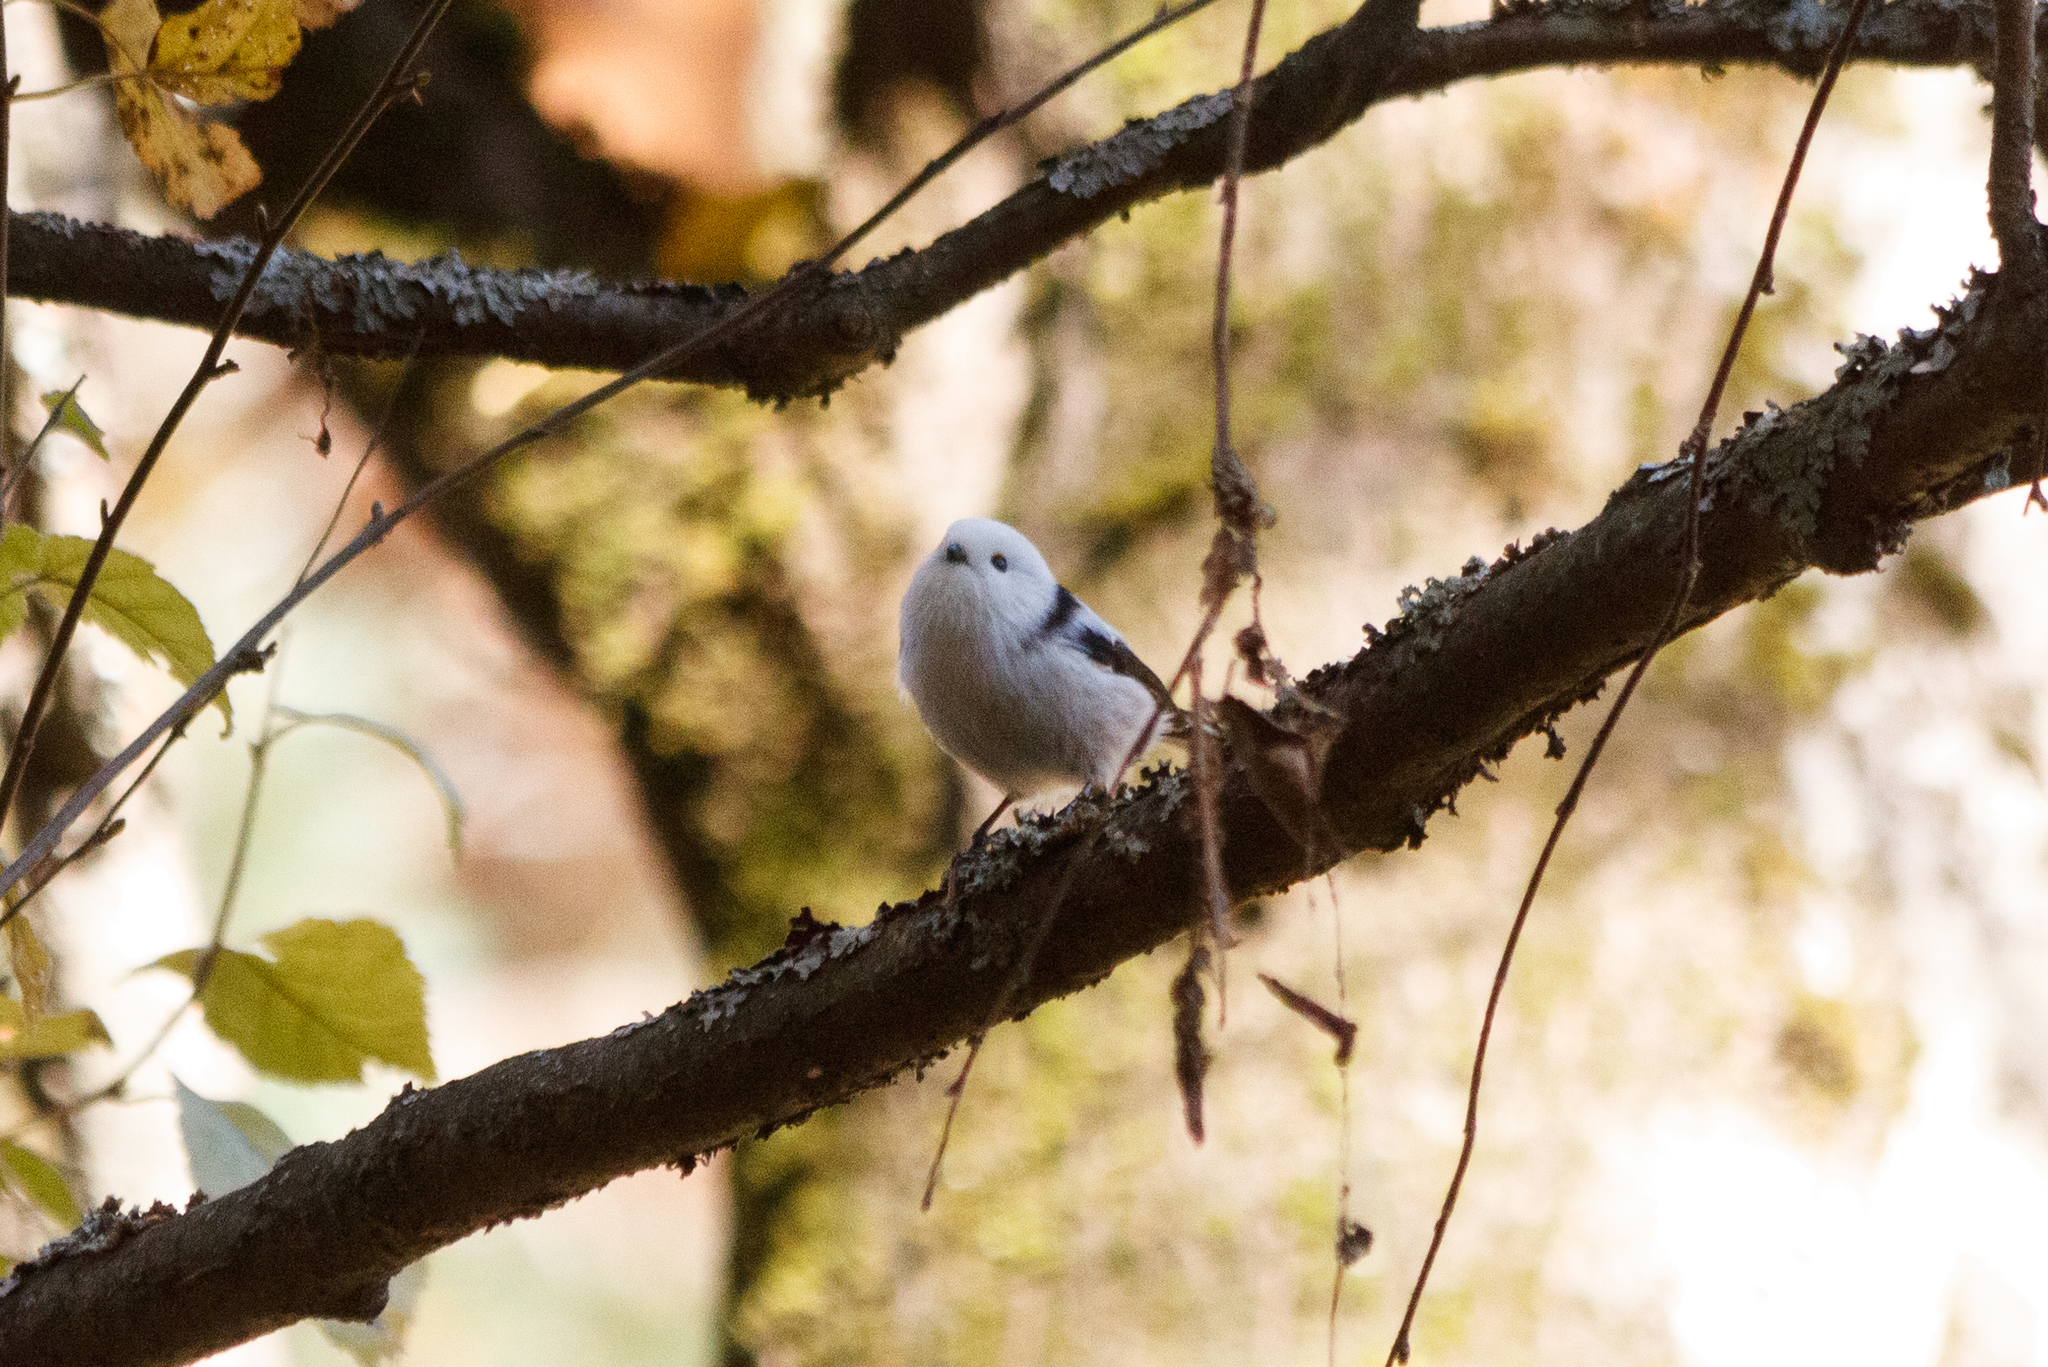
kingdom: Animalia
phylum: Chordata
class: Aves
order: Passeriformes
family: Aegithalidae
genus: Aegithalos
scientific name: Aegithalos caudatus
